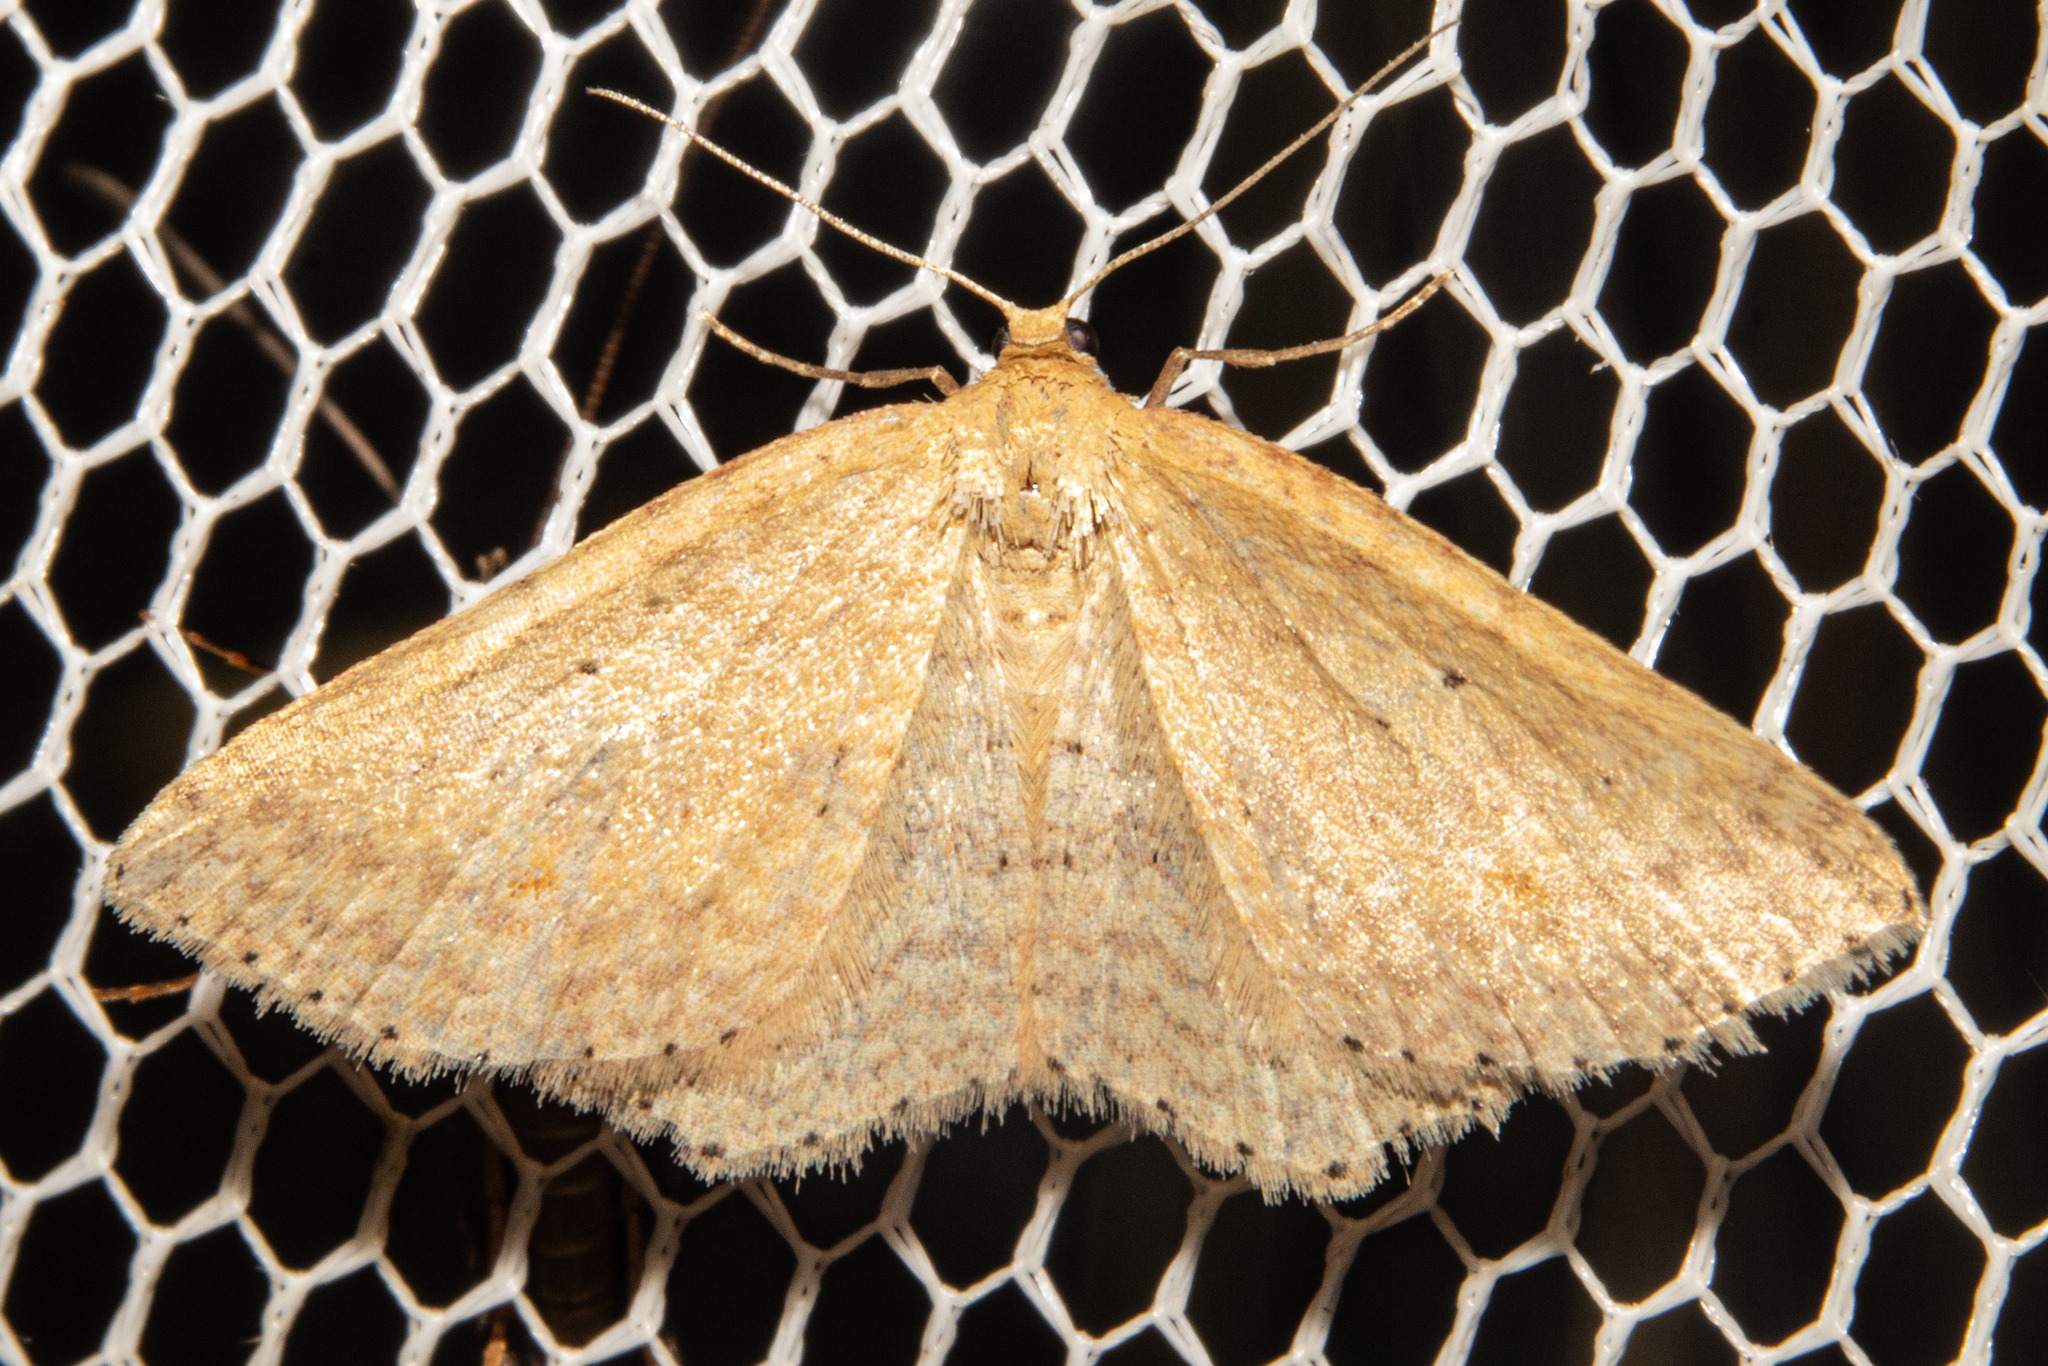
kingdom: Animalia
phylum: Arthropoda
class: Insecta
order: Lepidoptera
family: Geometridae
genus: Epicyme
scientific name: Epicyme rubropunctaria
